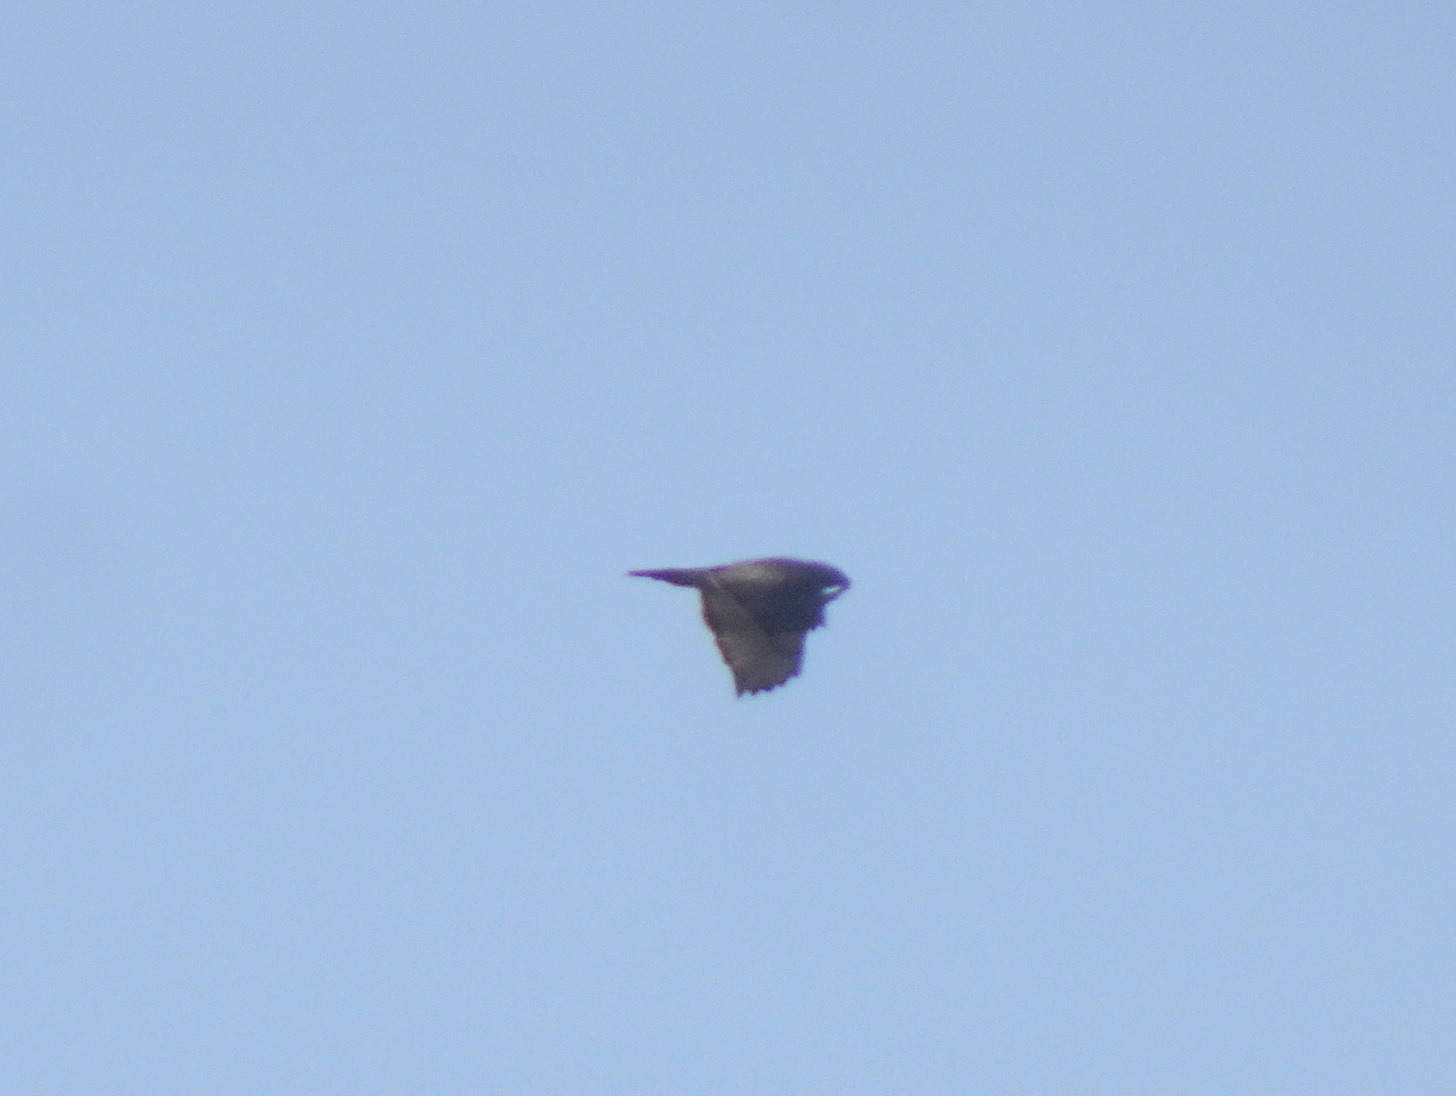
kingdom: Animalia
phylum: Chordata
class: Aves
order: Accipitriformes
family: Accipitridae
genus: Buteo
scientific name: Buteo jamaicensis
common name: Red-tailed hawk
